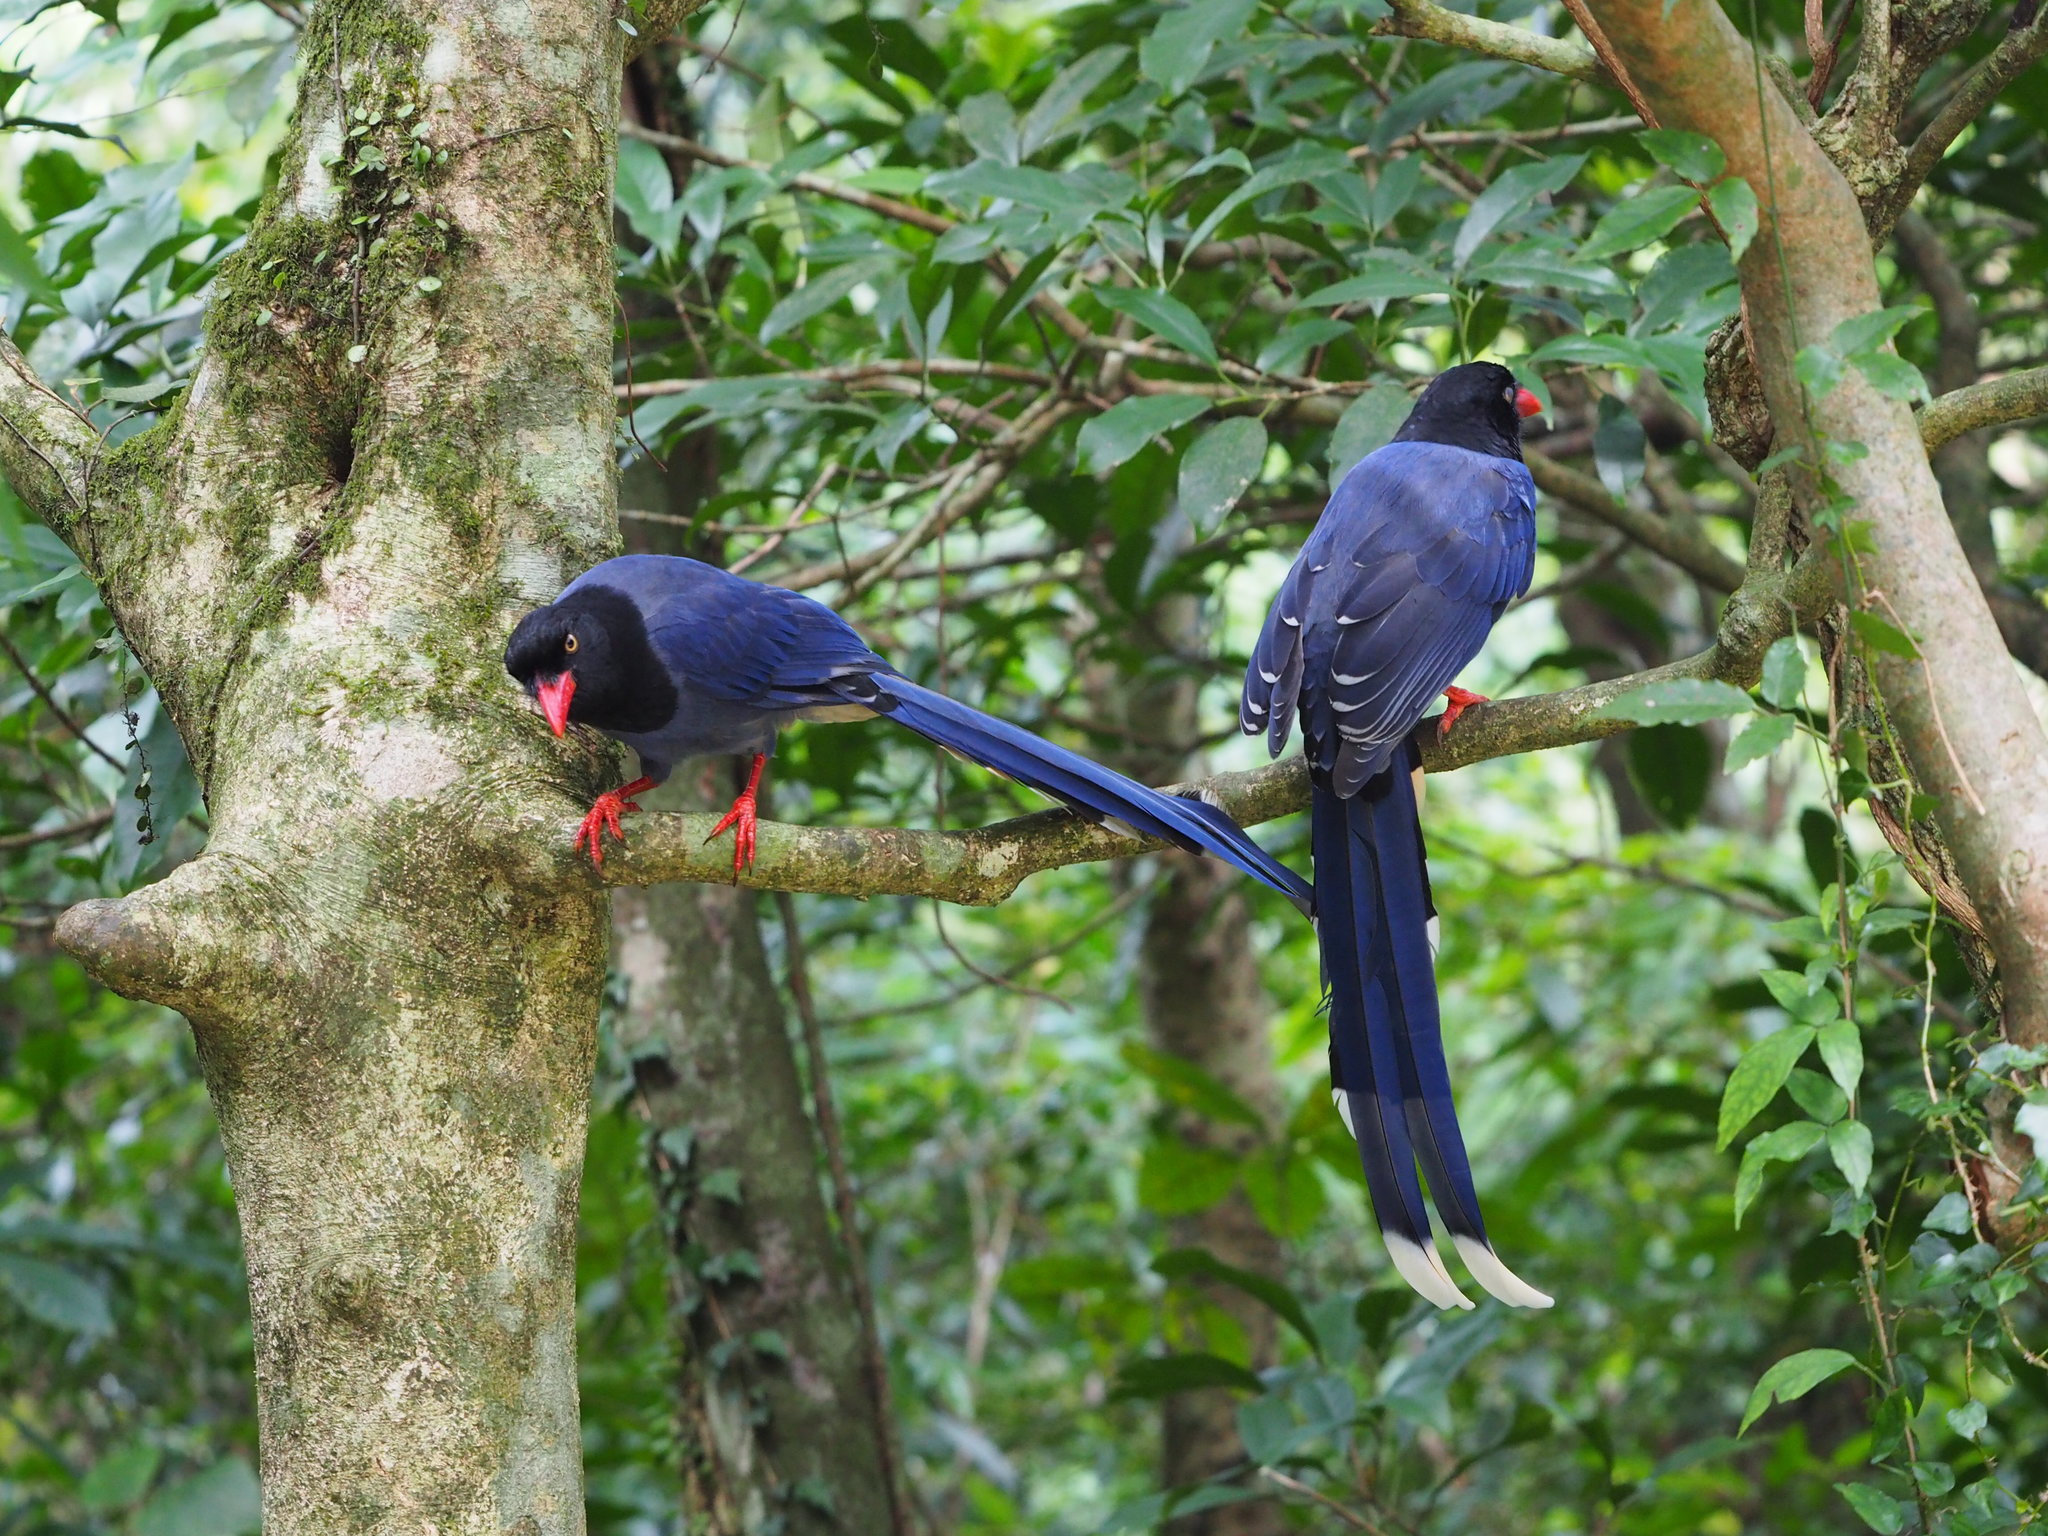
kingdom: Animalia
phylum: Chordata
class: Aves
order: Passeriformes
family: Corvidae
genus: Urocissa
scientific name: Urocissa caerulea
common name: Taiwan blue magpie
